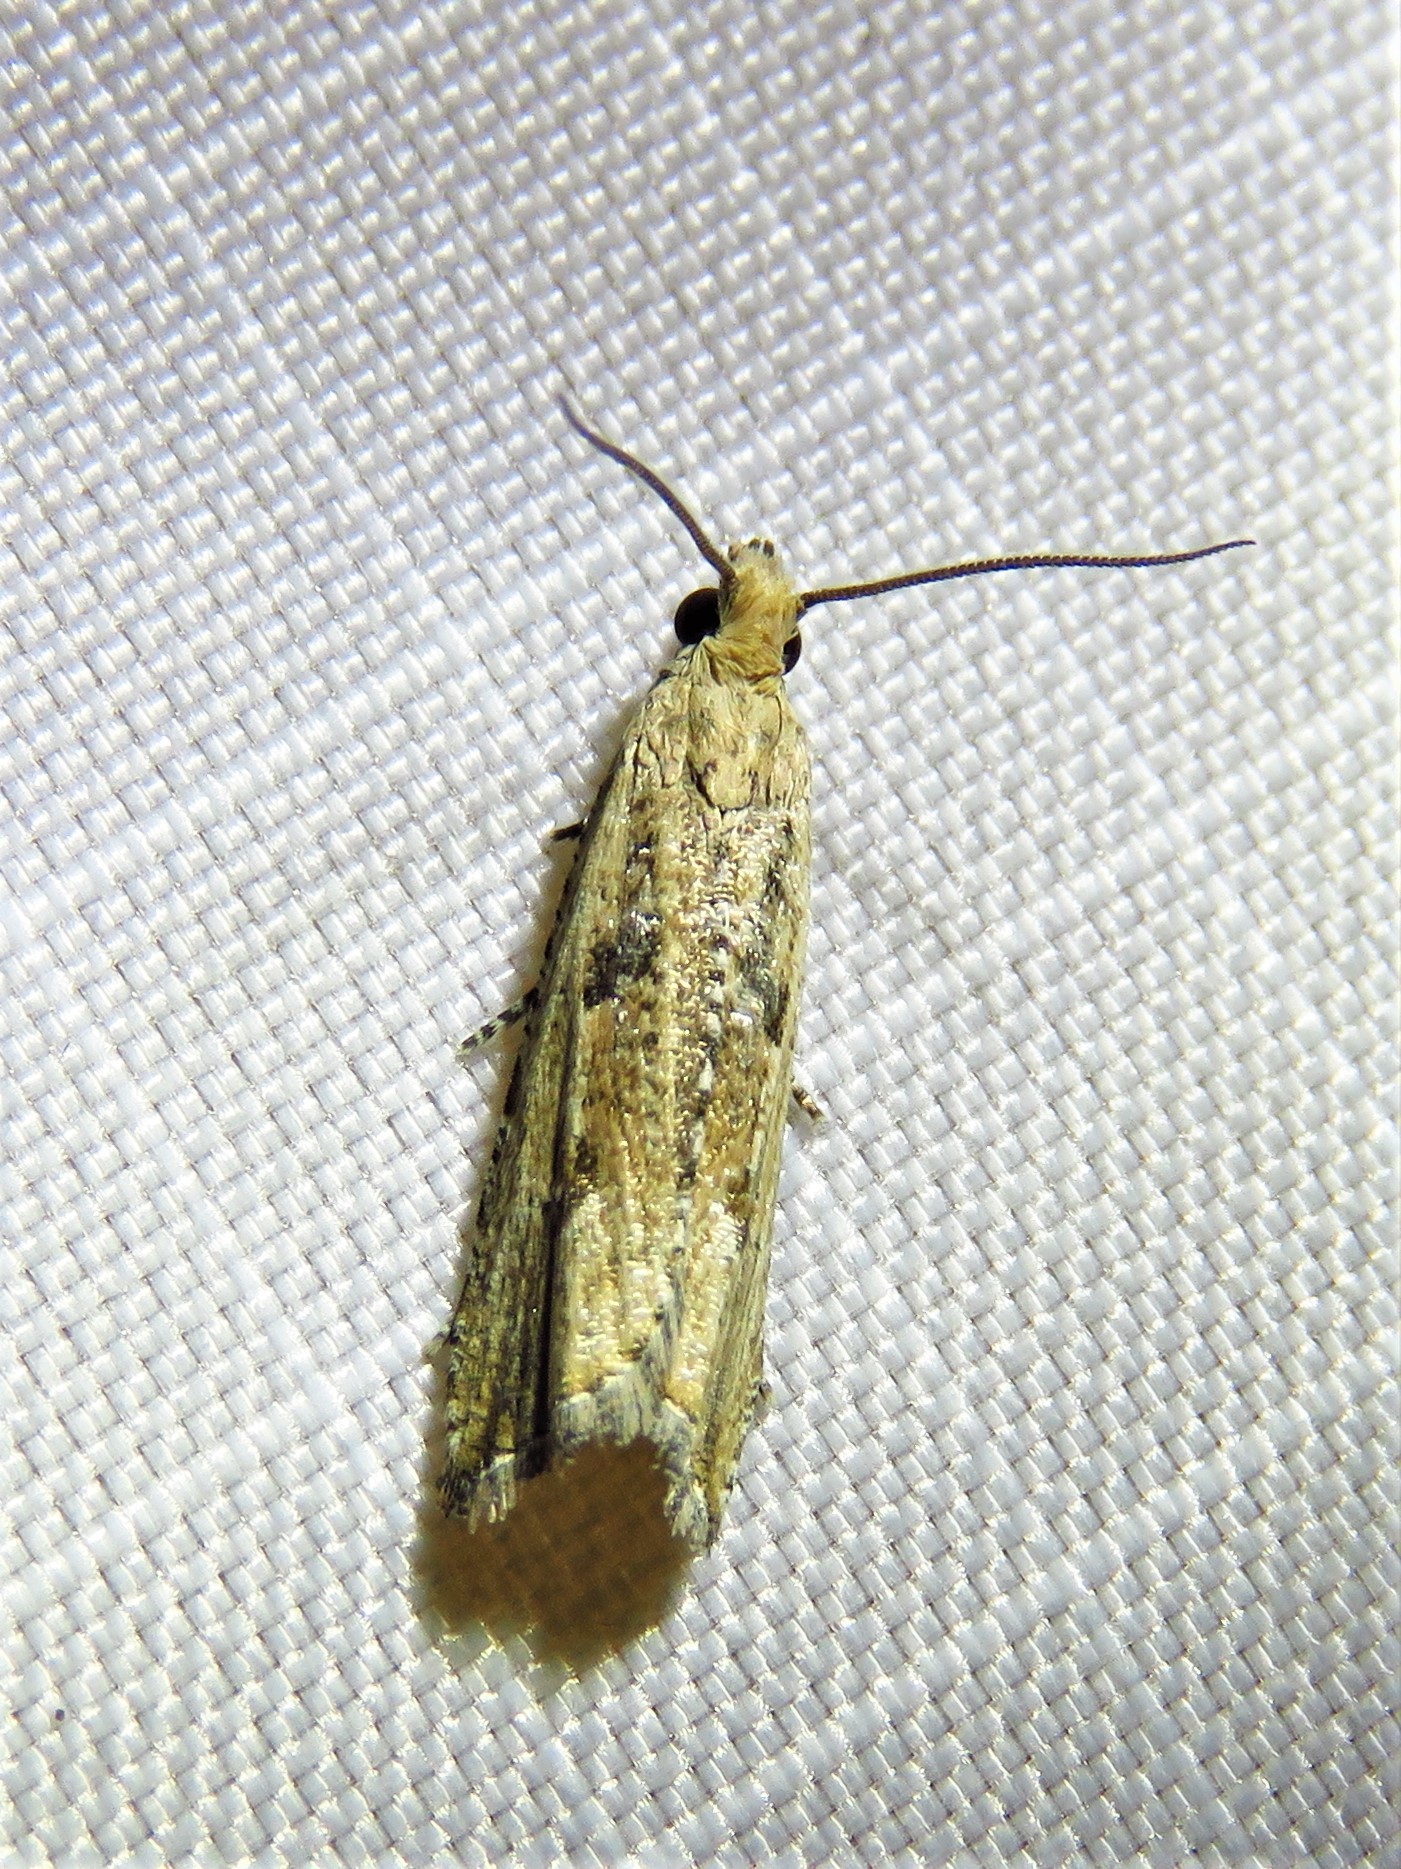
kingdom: Animalia
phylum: Arthropoda
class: Insecta
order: Lepidoptera
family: Tortricidae
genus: Bactra
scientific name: Bactra verutana
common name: Javelin moth
